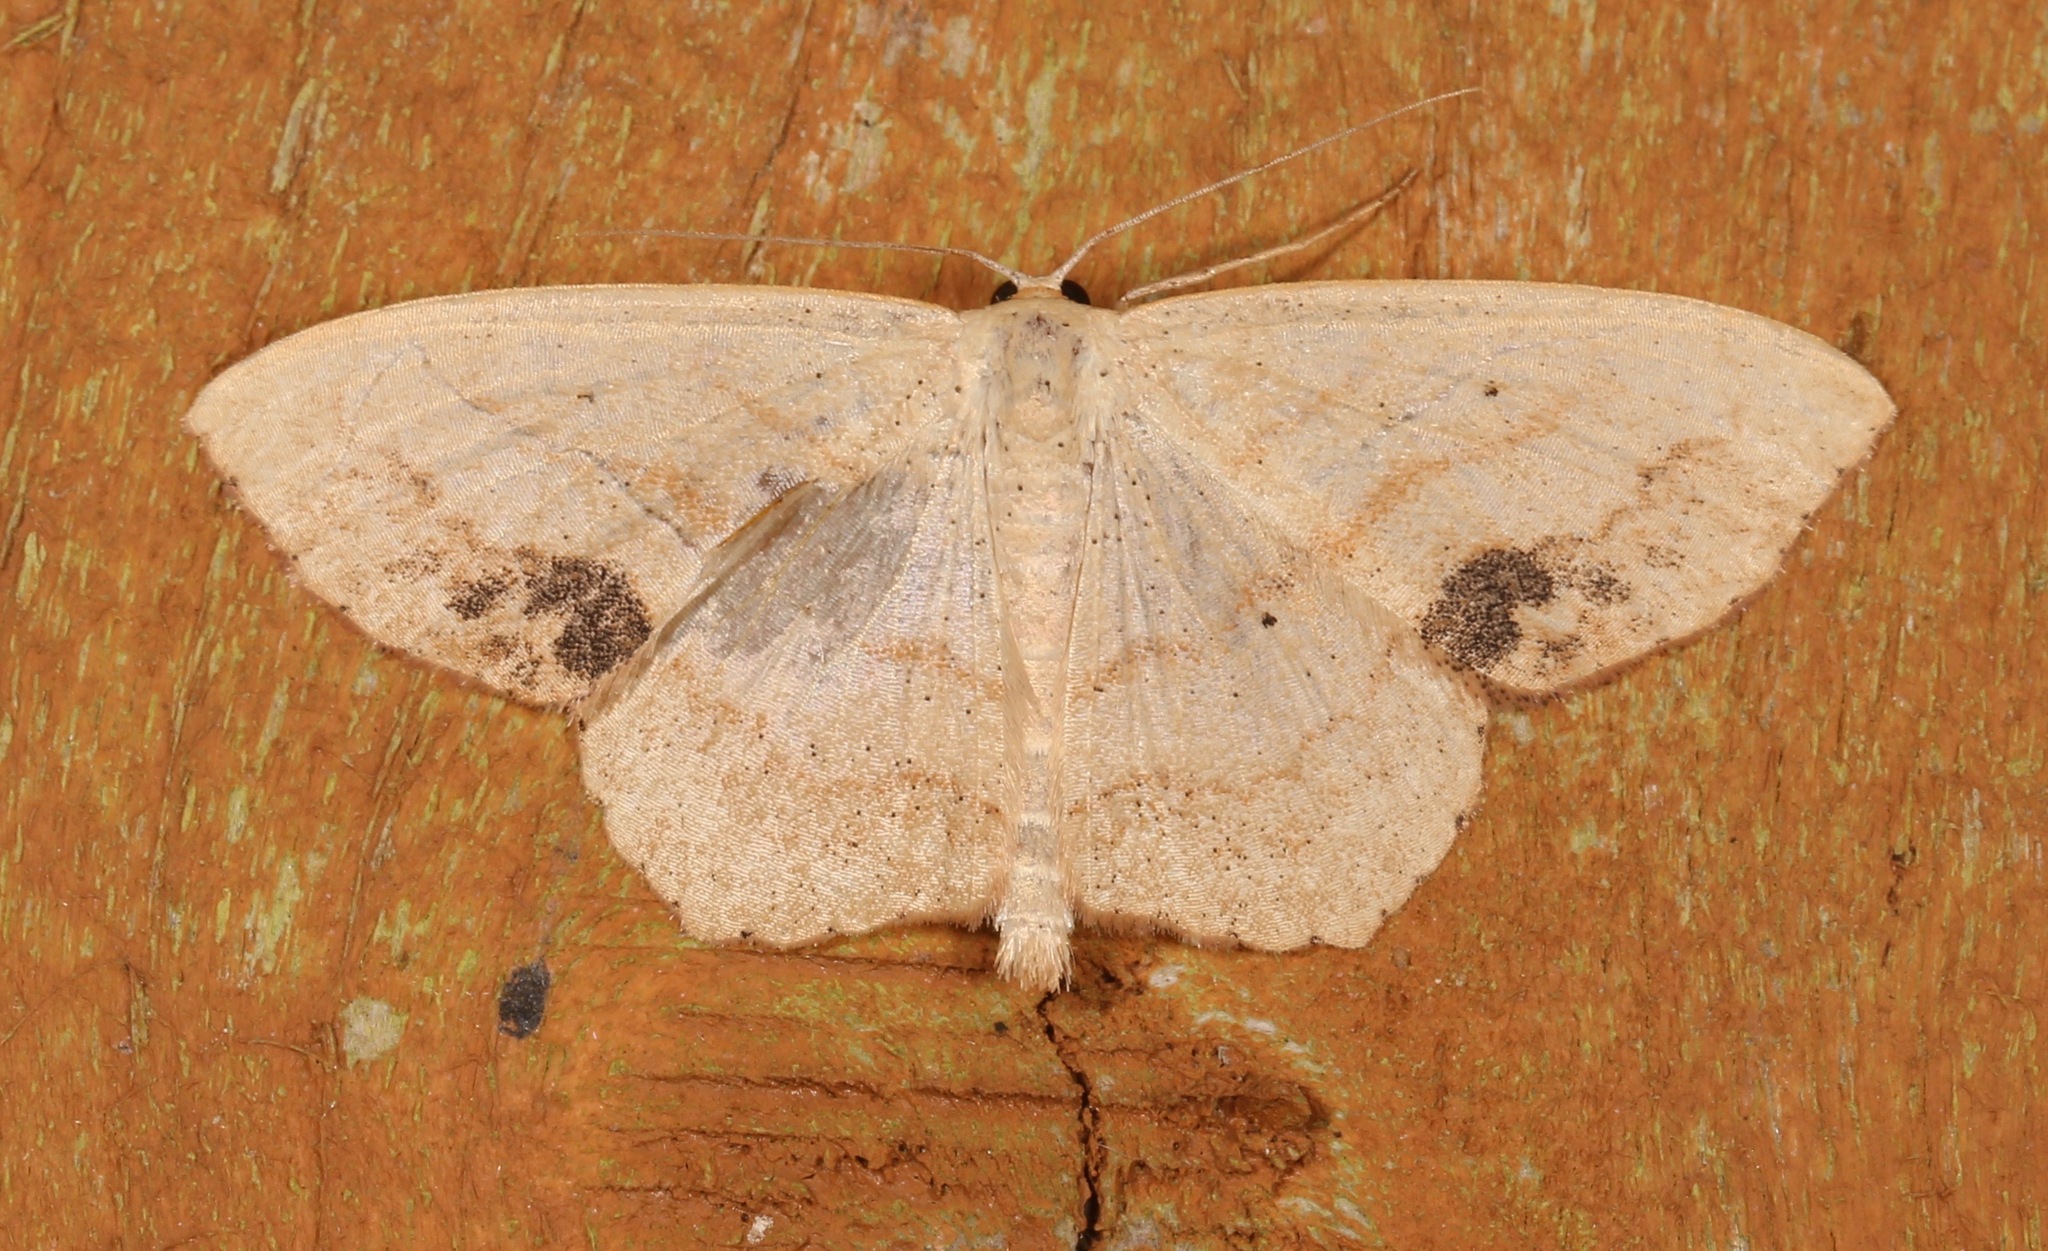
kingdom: Animalia
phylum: Arthropoda
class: Insecta
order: Lepidoptera
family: Geometridae
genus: Scopula
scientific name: Scopula limboundata
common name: Large lace border
